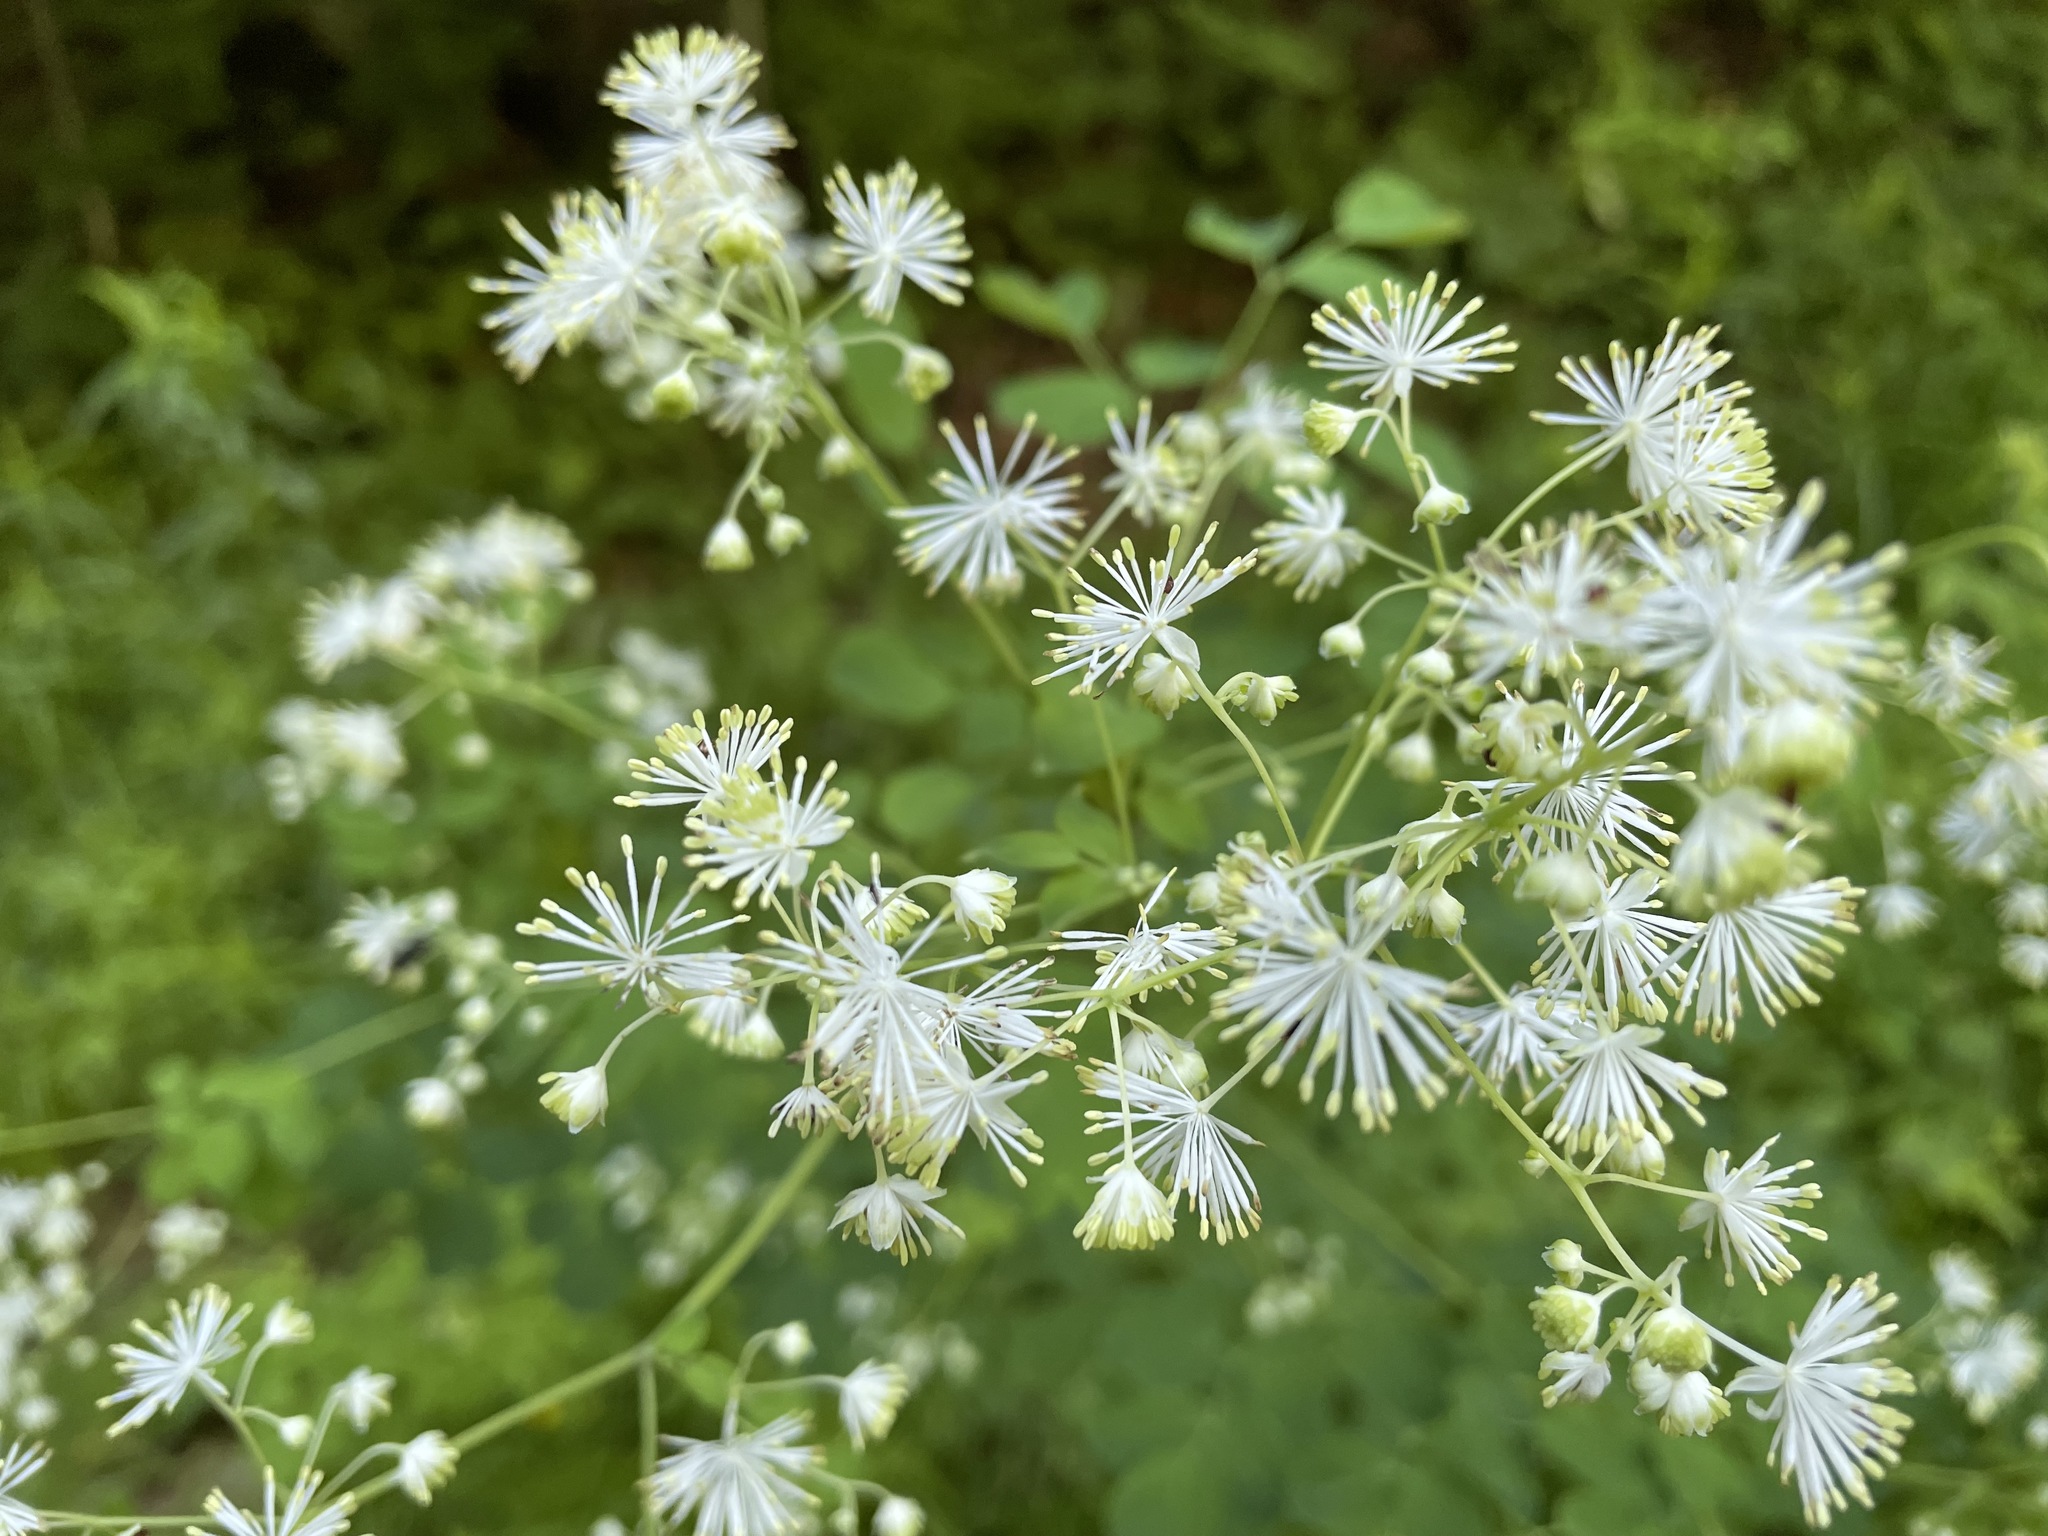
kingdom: Plantae
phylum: Tracheophyta
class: Magnoliopsida
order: Ranunculales
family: Ranunculaceae
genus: Thalictrum
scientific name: Thalictrum pubescens
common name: King-of-the-meadow
